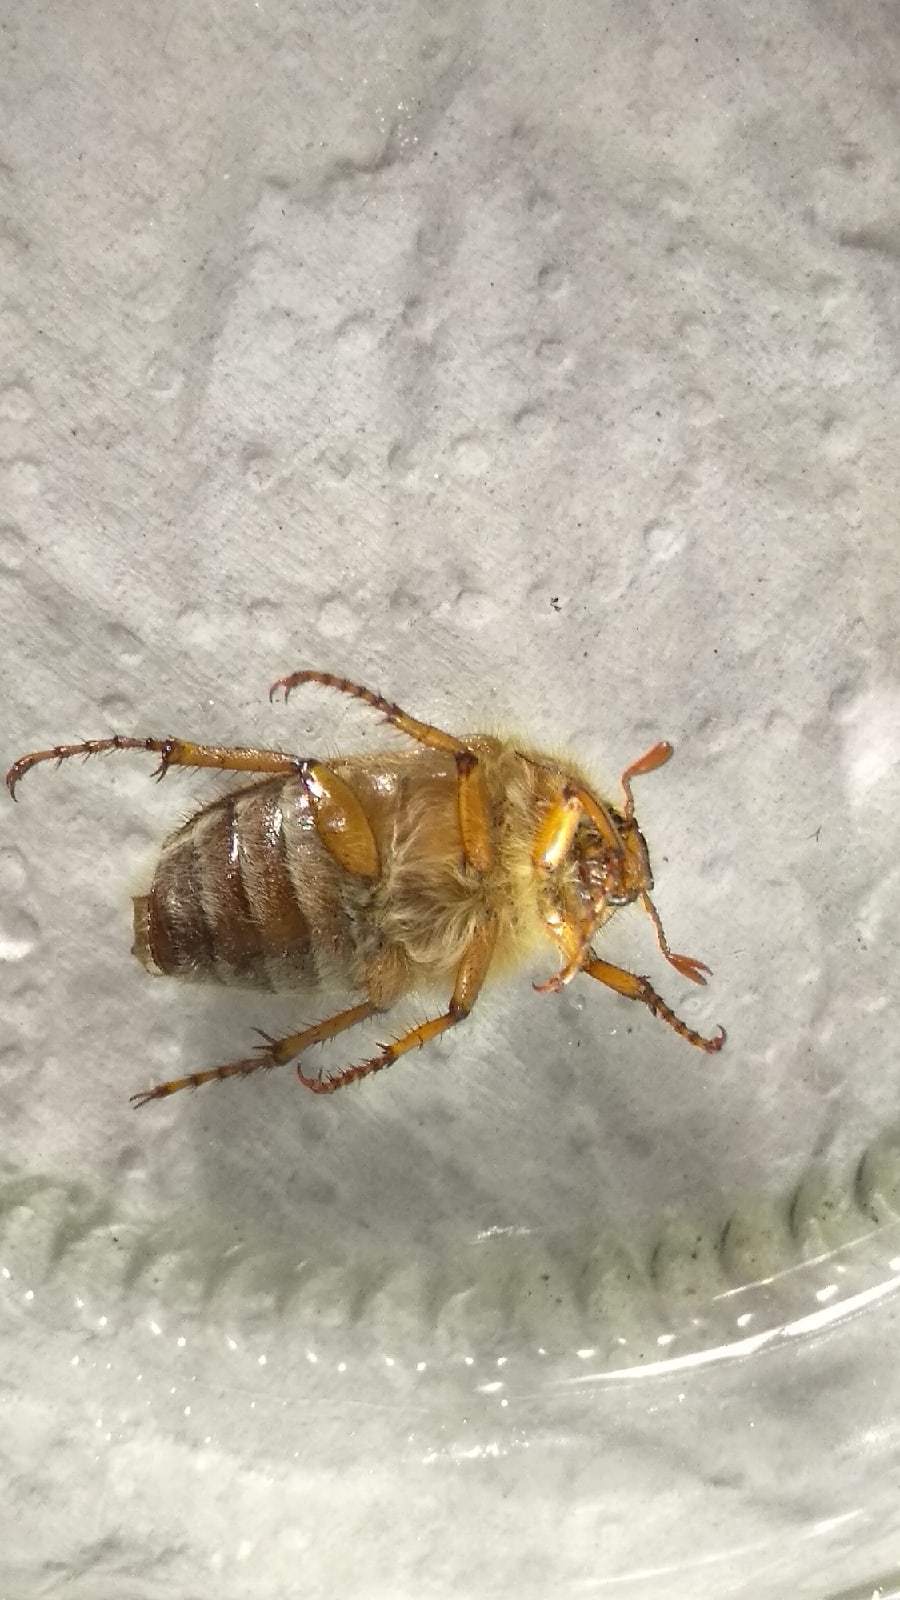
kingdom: Animalia
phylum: Arthropoda
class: Insecta
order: Coleoptera
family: Scarabaeidae
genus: Amphimallon
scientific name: Amphimallon solstitiale
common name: Summer chafer
